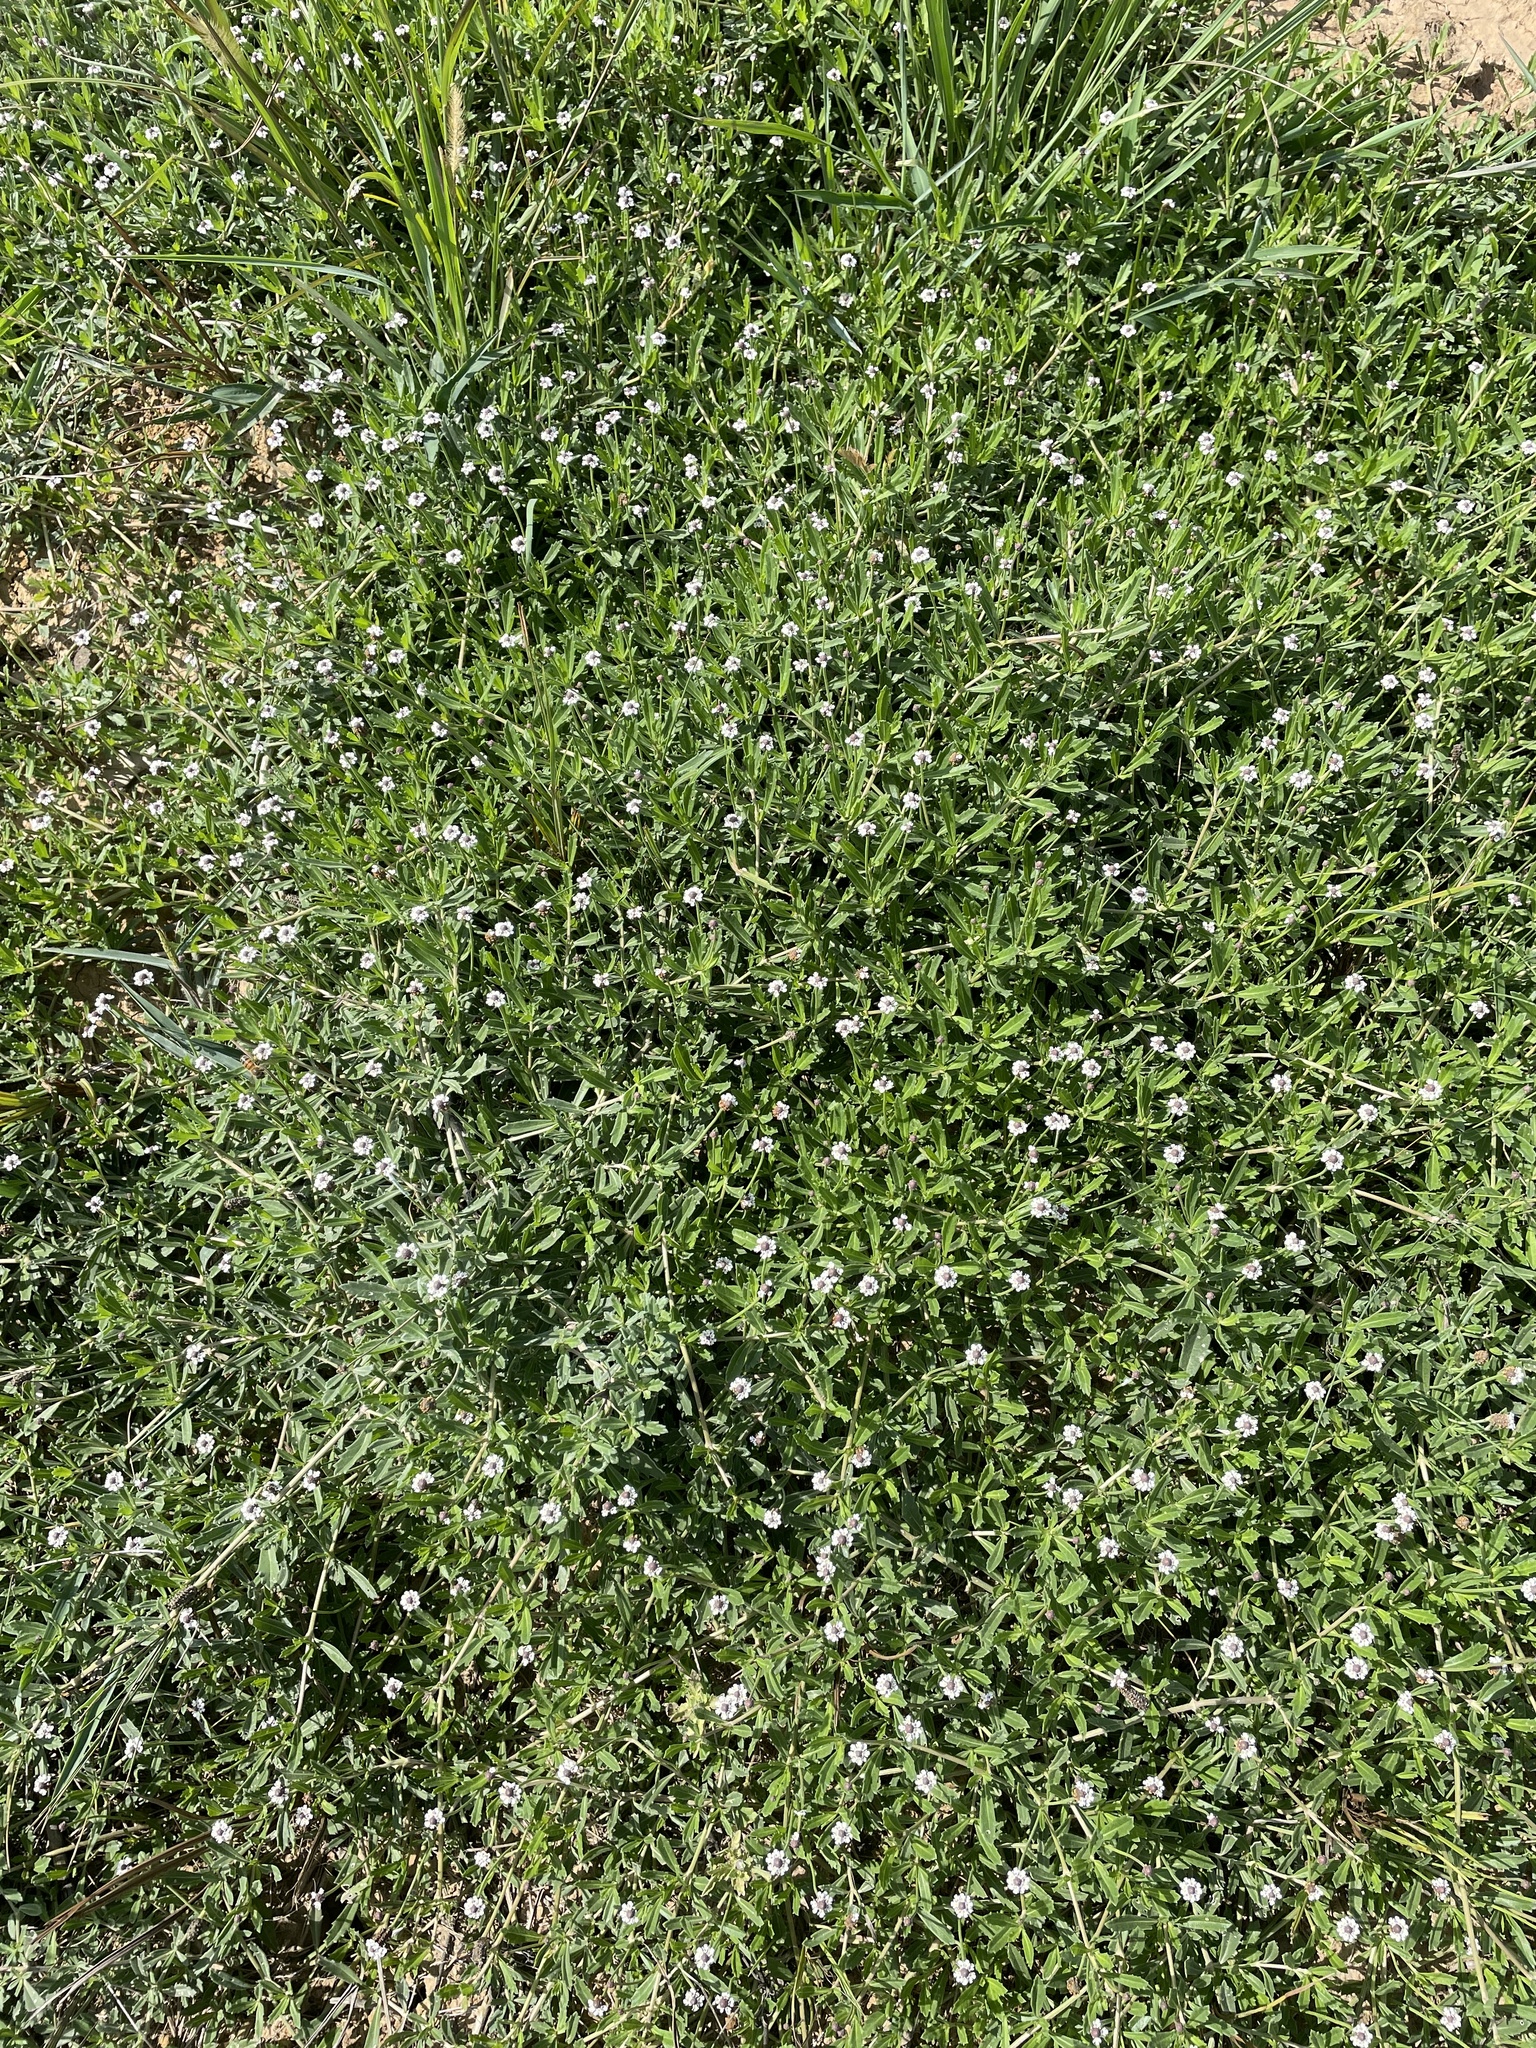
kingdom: Plantae
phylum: Tracheophyta
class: Magnoliopsida
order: Lamiales
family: Verbenaceae
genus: Phyla
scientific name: Phyla nodiflora
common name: Frogfruit
